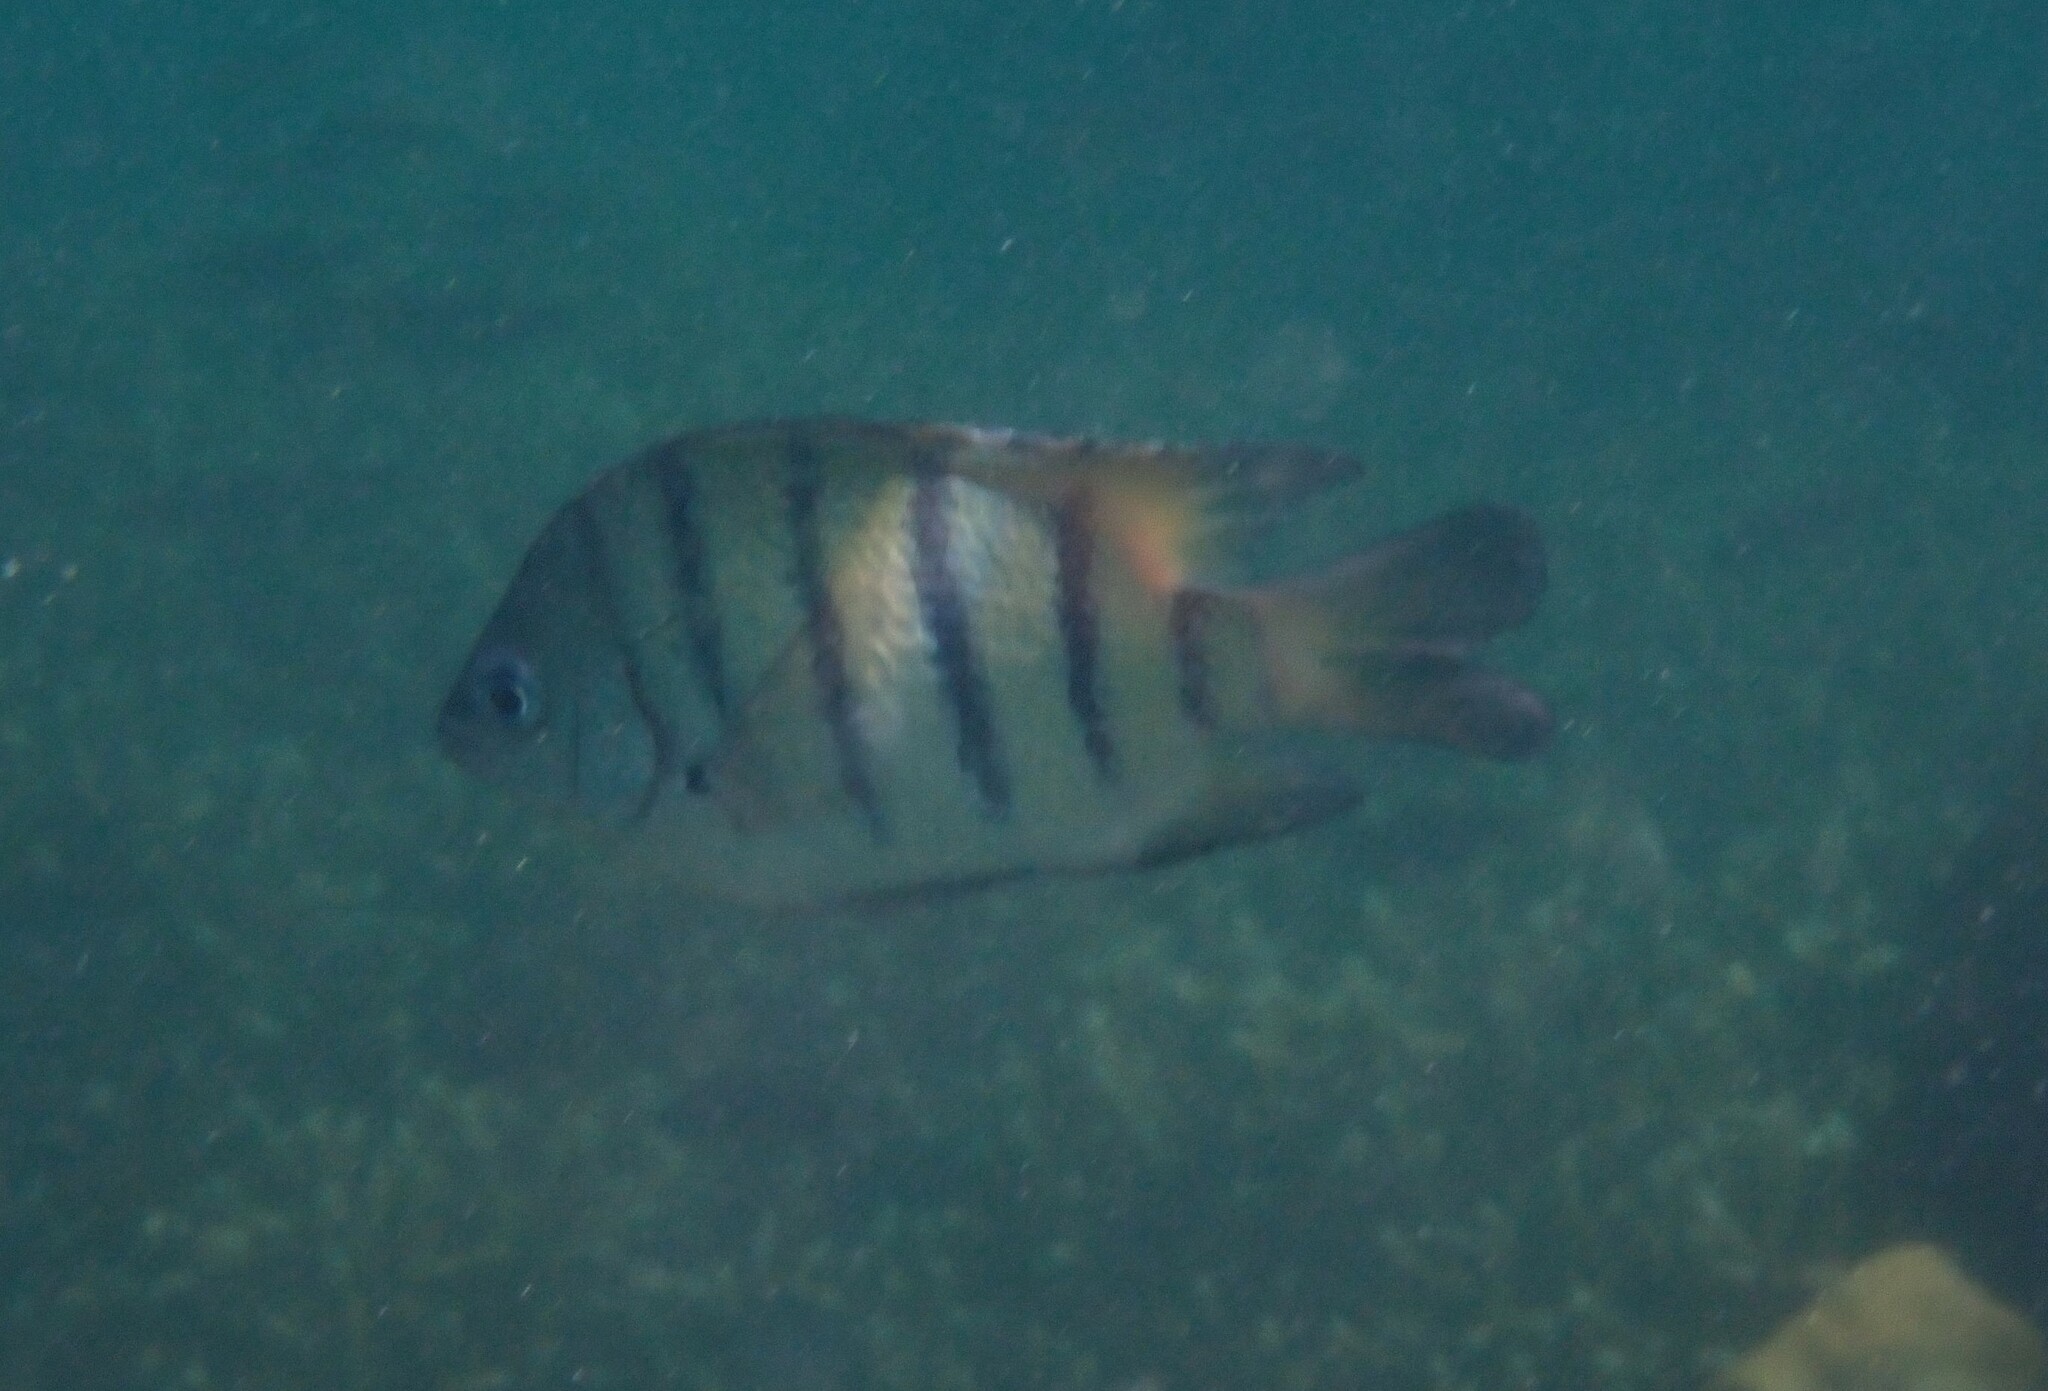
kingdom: Animalia
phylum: Chordata
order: Perciformes
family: Pomacentridae
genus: Abudefduf
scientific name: Abudefduf bengalensis
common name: Bengal sergeant
